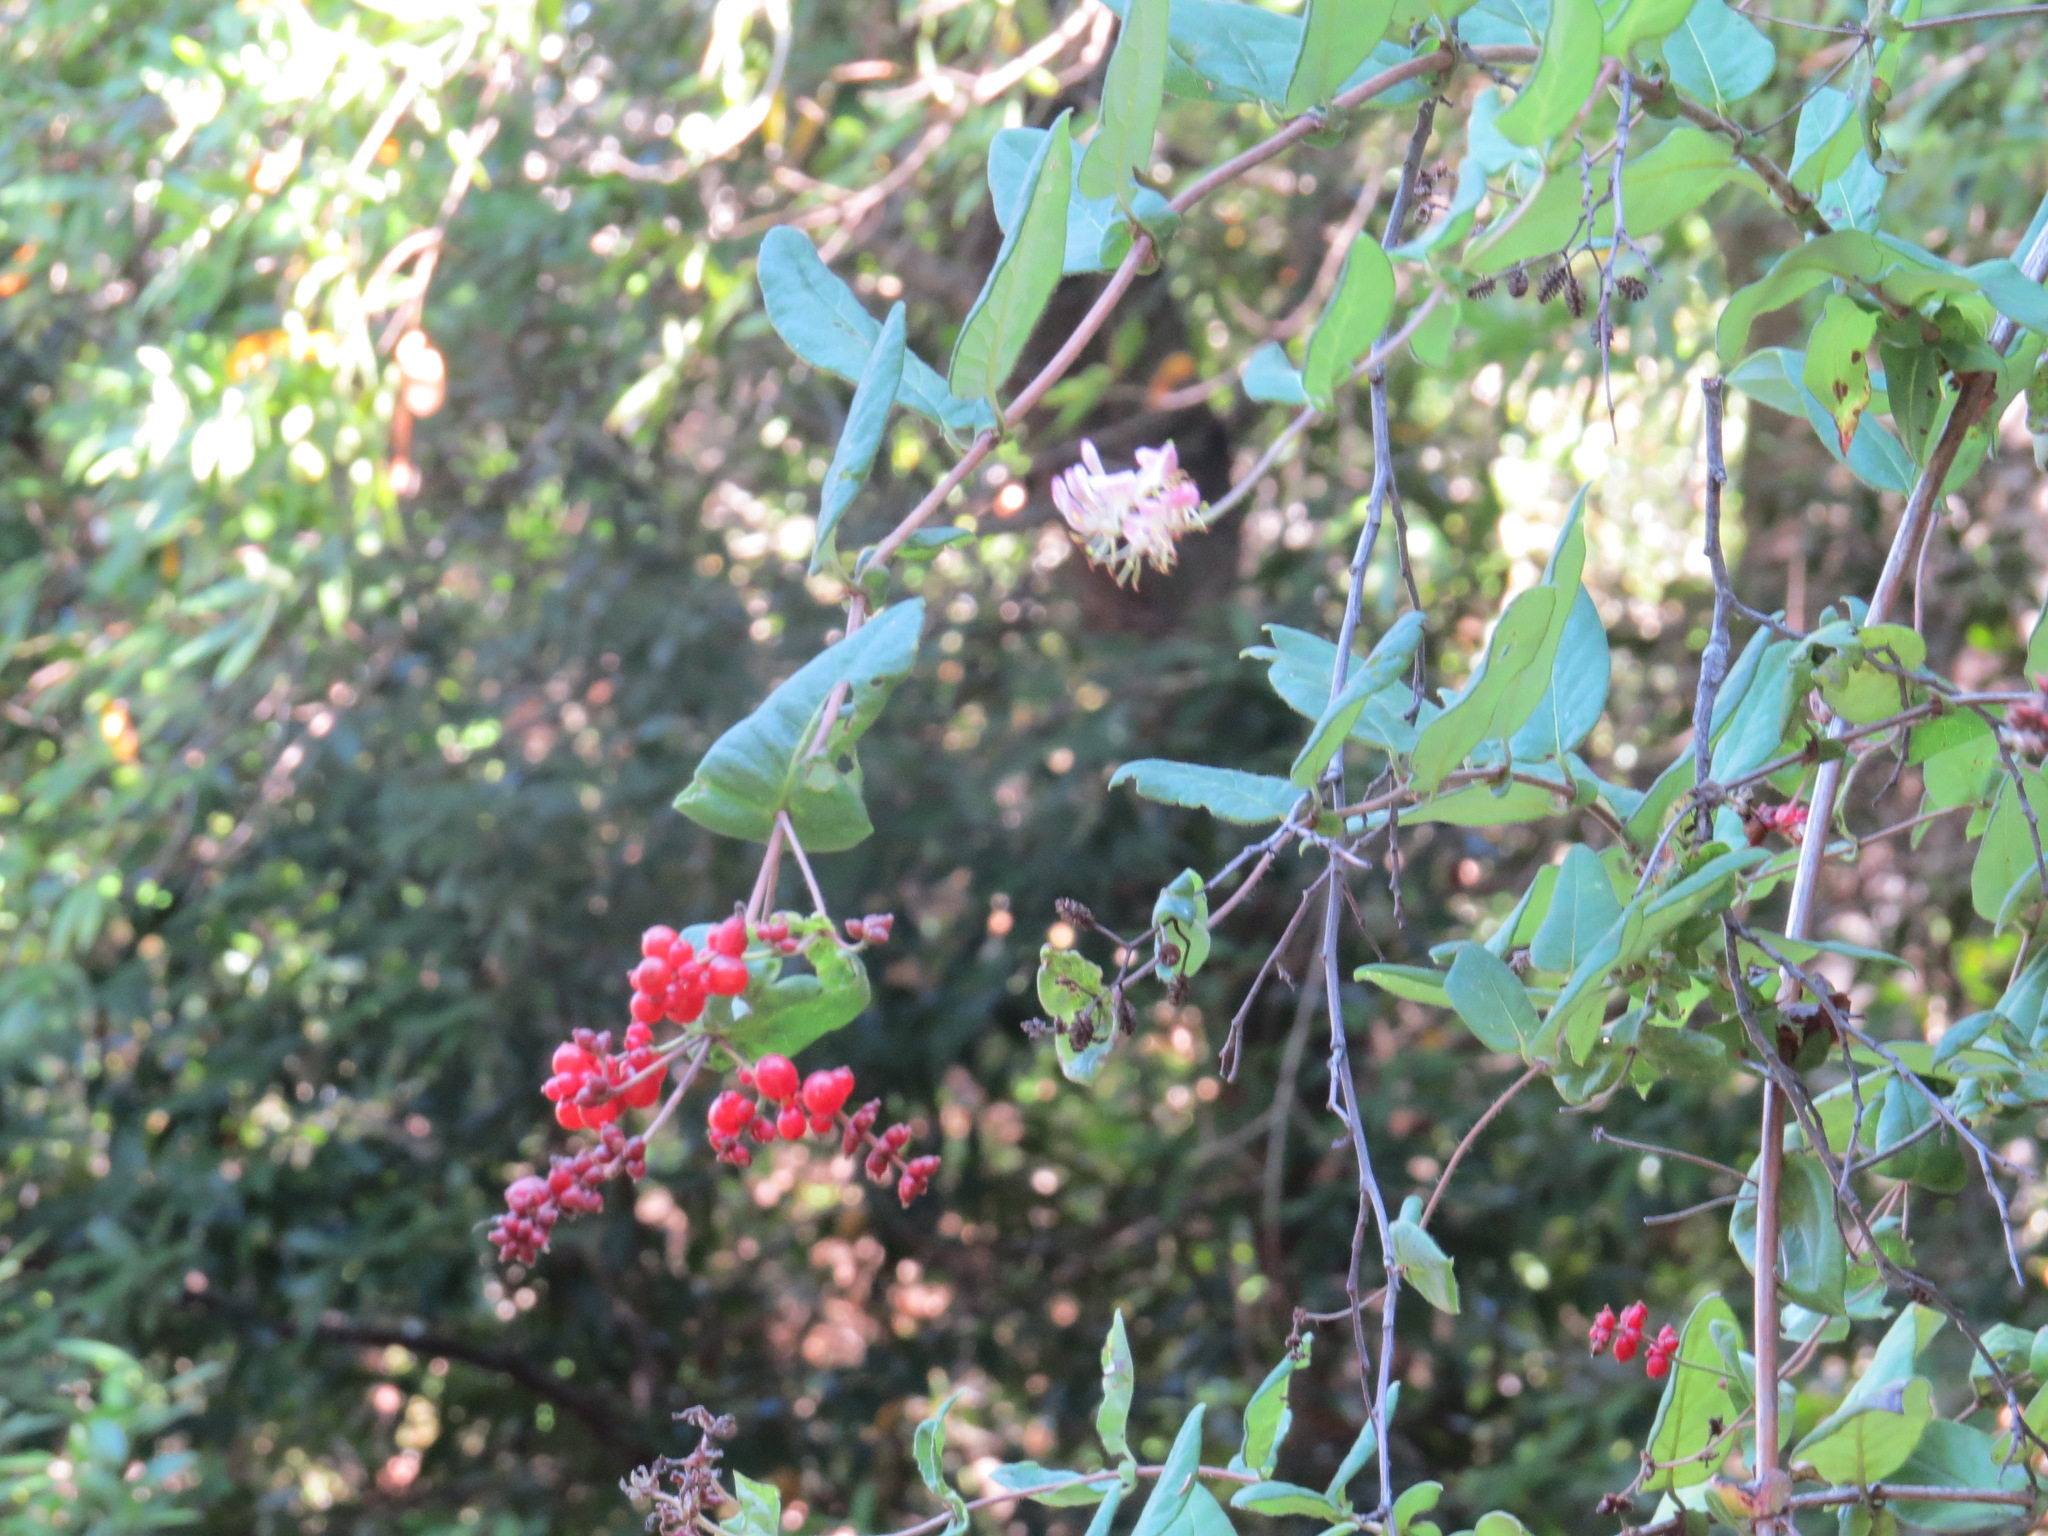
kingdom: Plantae
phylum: Tracheophyta
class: Magnoliopsida
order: Dipsacales
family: Caprifoliaceae
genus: Lonicera
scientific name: Lonicera hispidula
